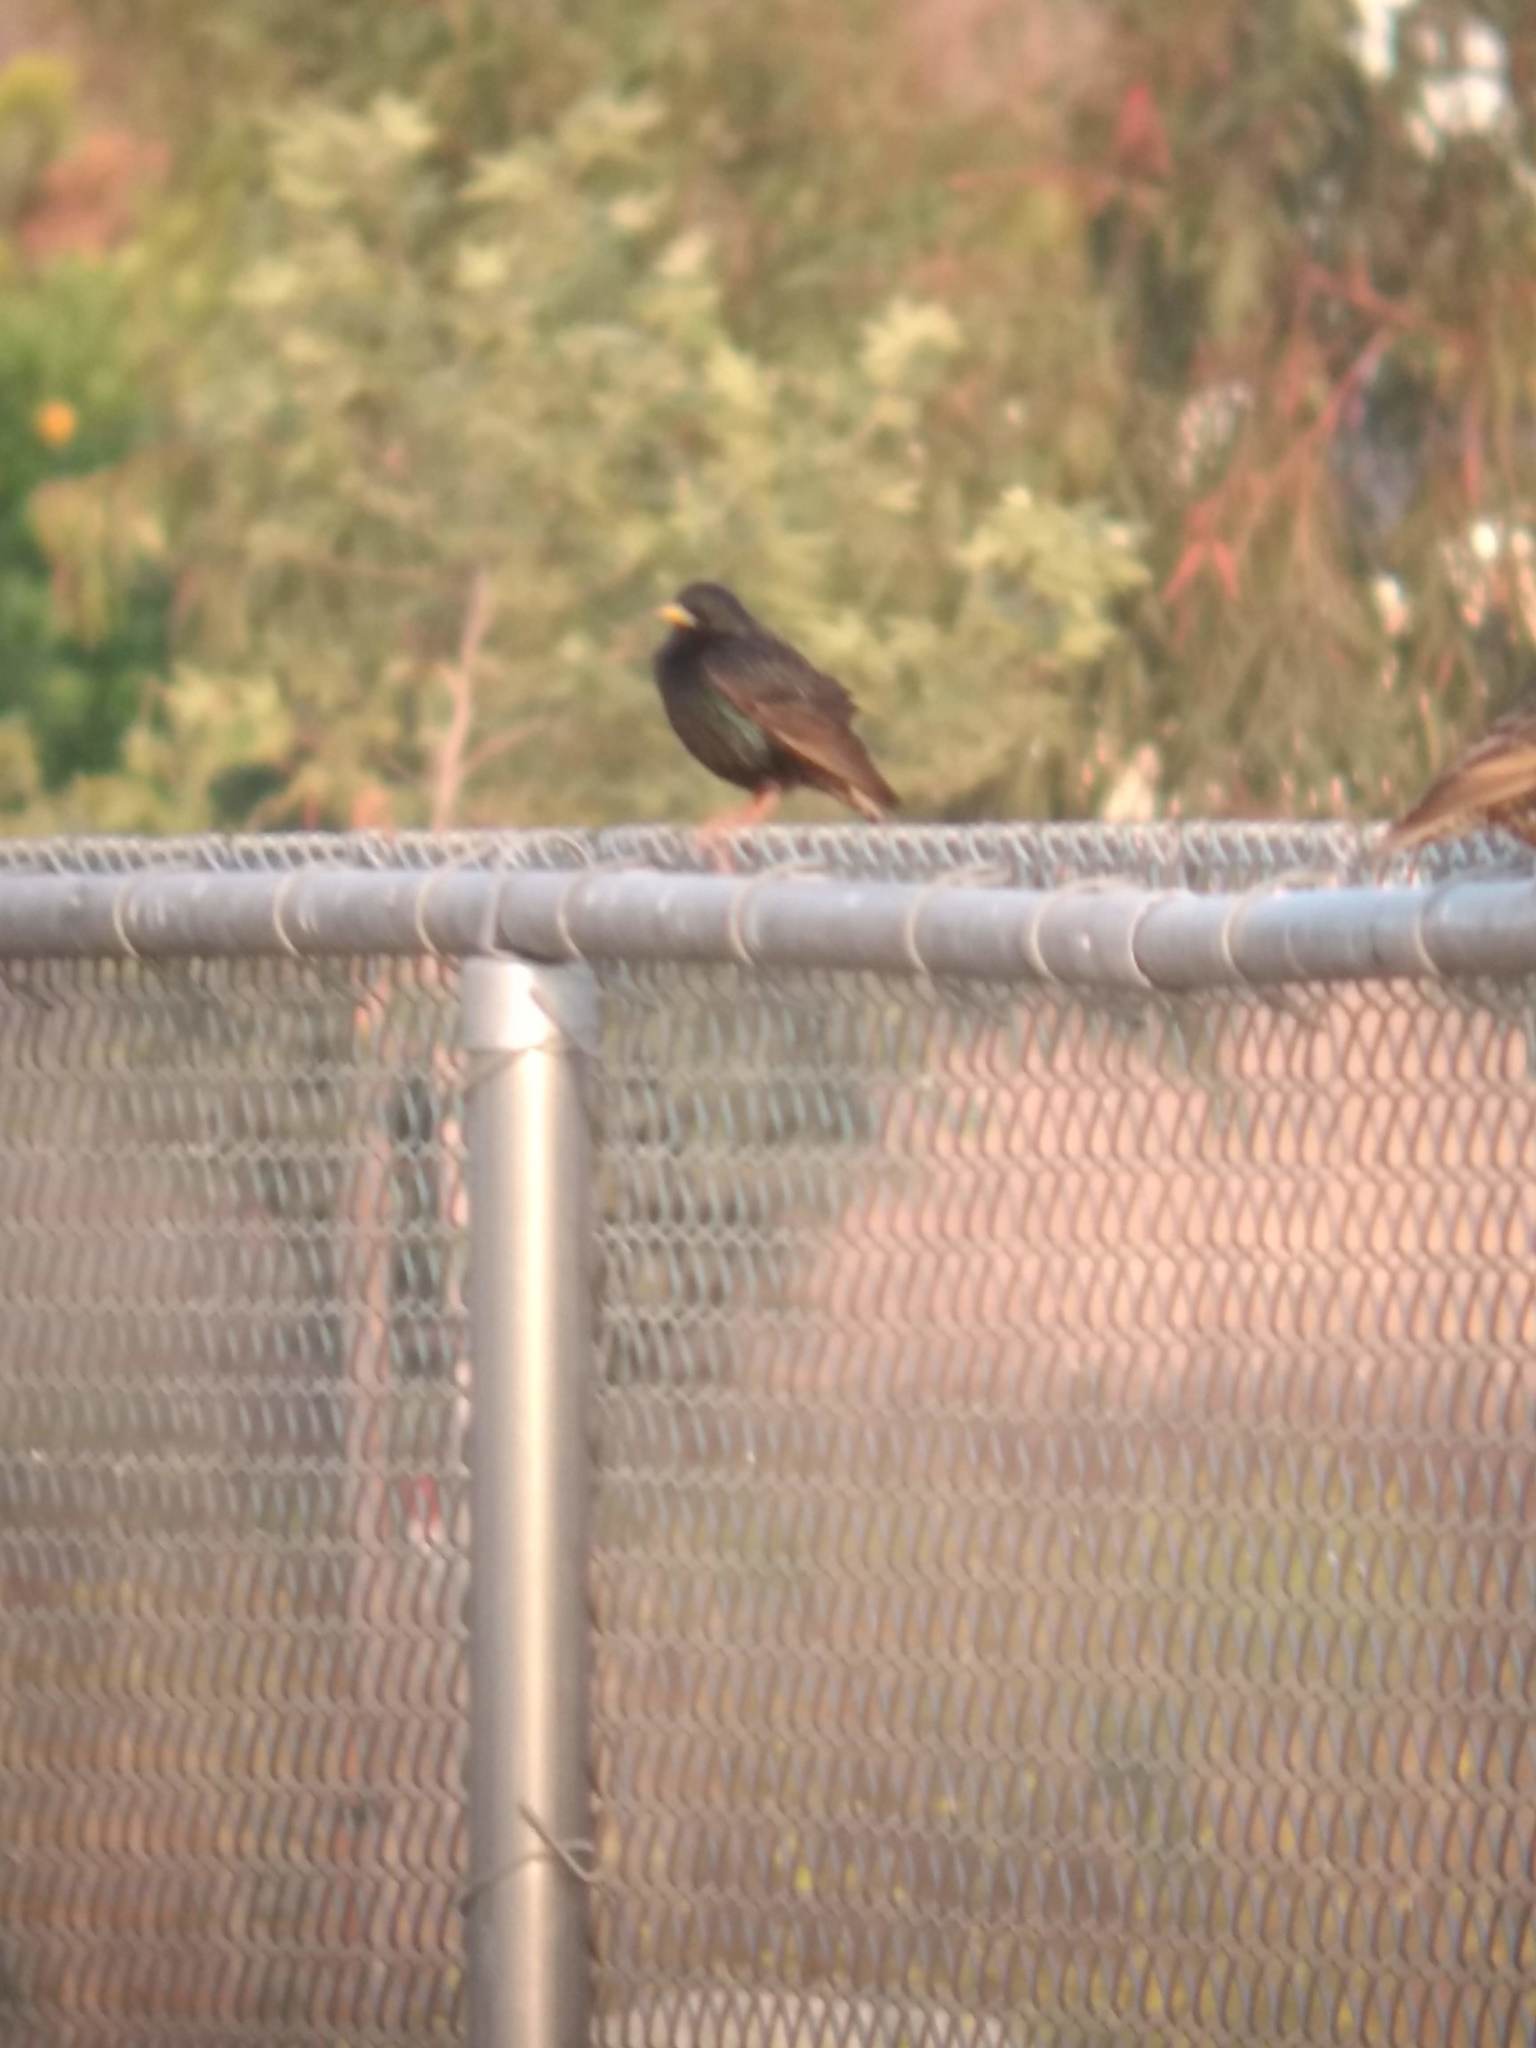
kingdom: Animalia
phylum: Chordata
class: Aves
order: Passeriformes
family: Sturnidae
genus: Sturnus
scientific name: Sturnus vulgaris
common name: Common starling
